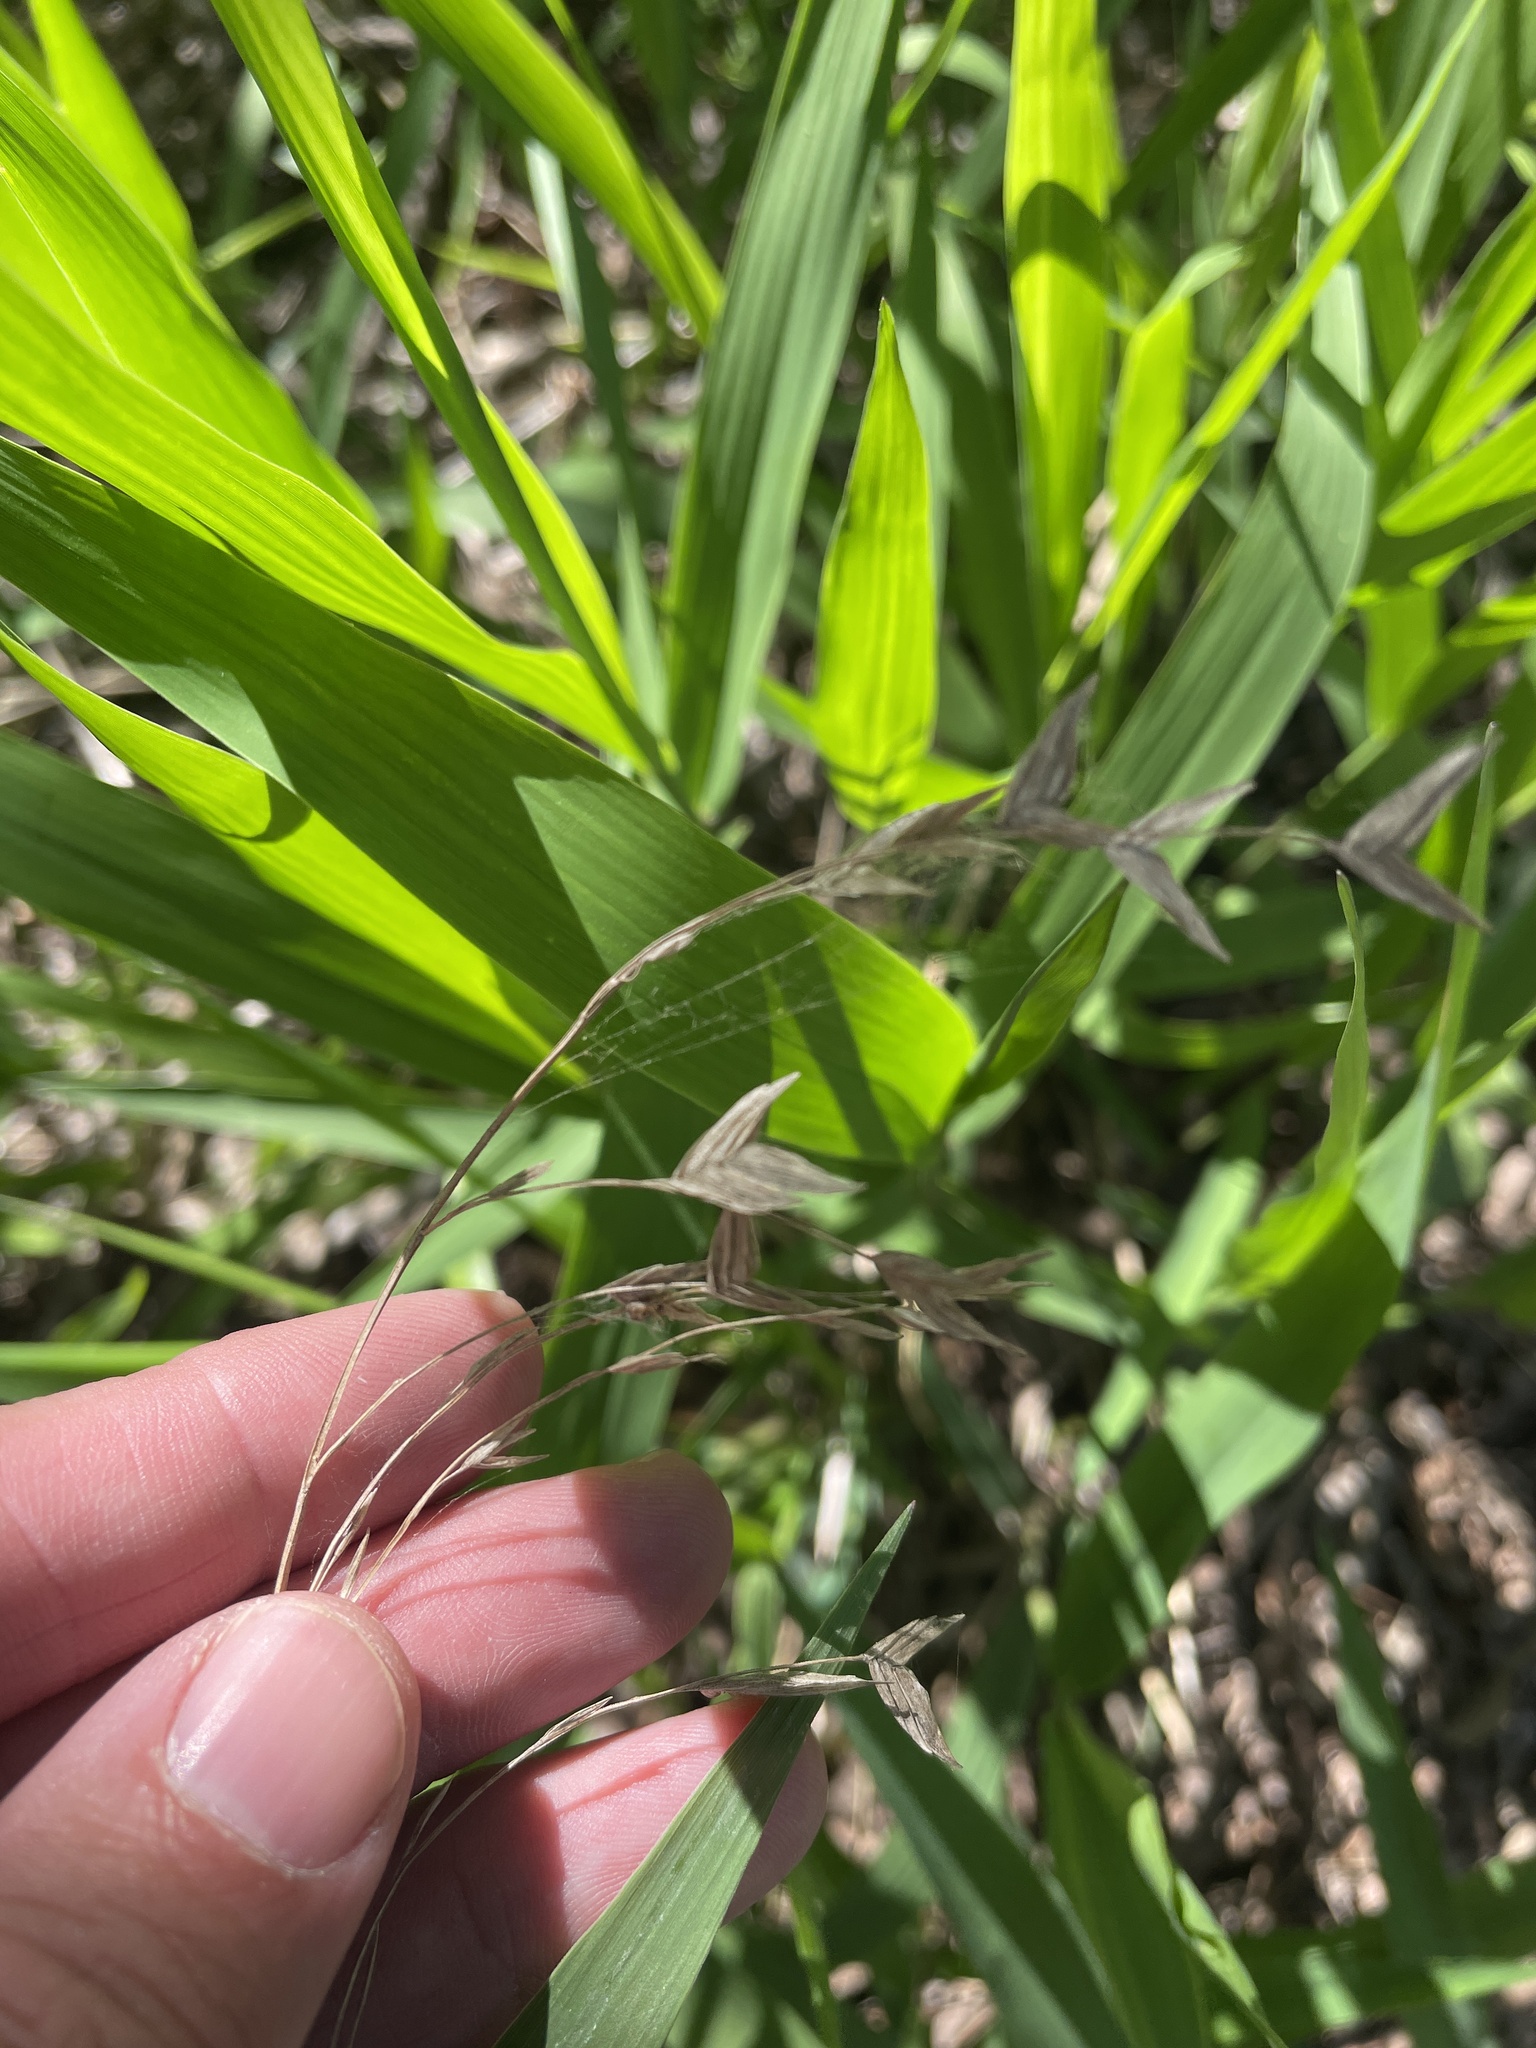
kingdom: Plantae
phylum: Tracheophyta
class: Liliopsida
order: Poales
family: Poaceae
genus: Chasmanthium
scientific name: Chasmanthium latifolium
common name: Broad-leaved chasmanthium
